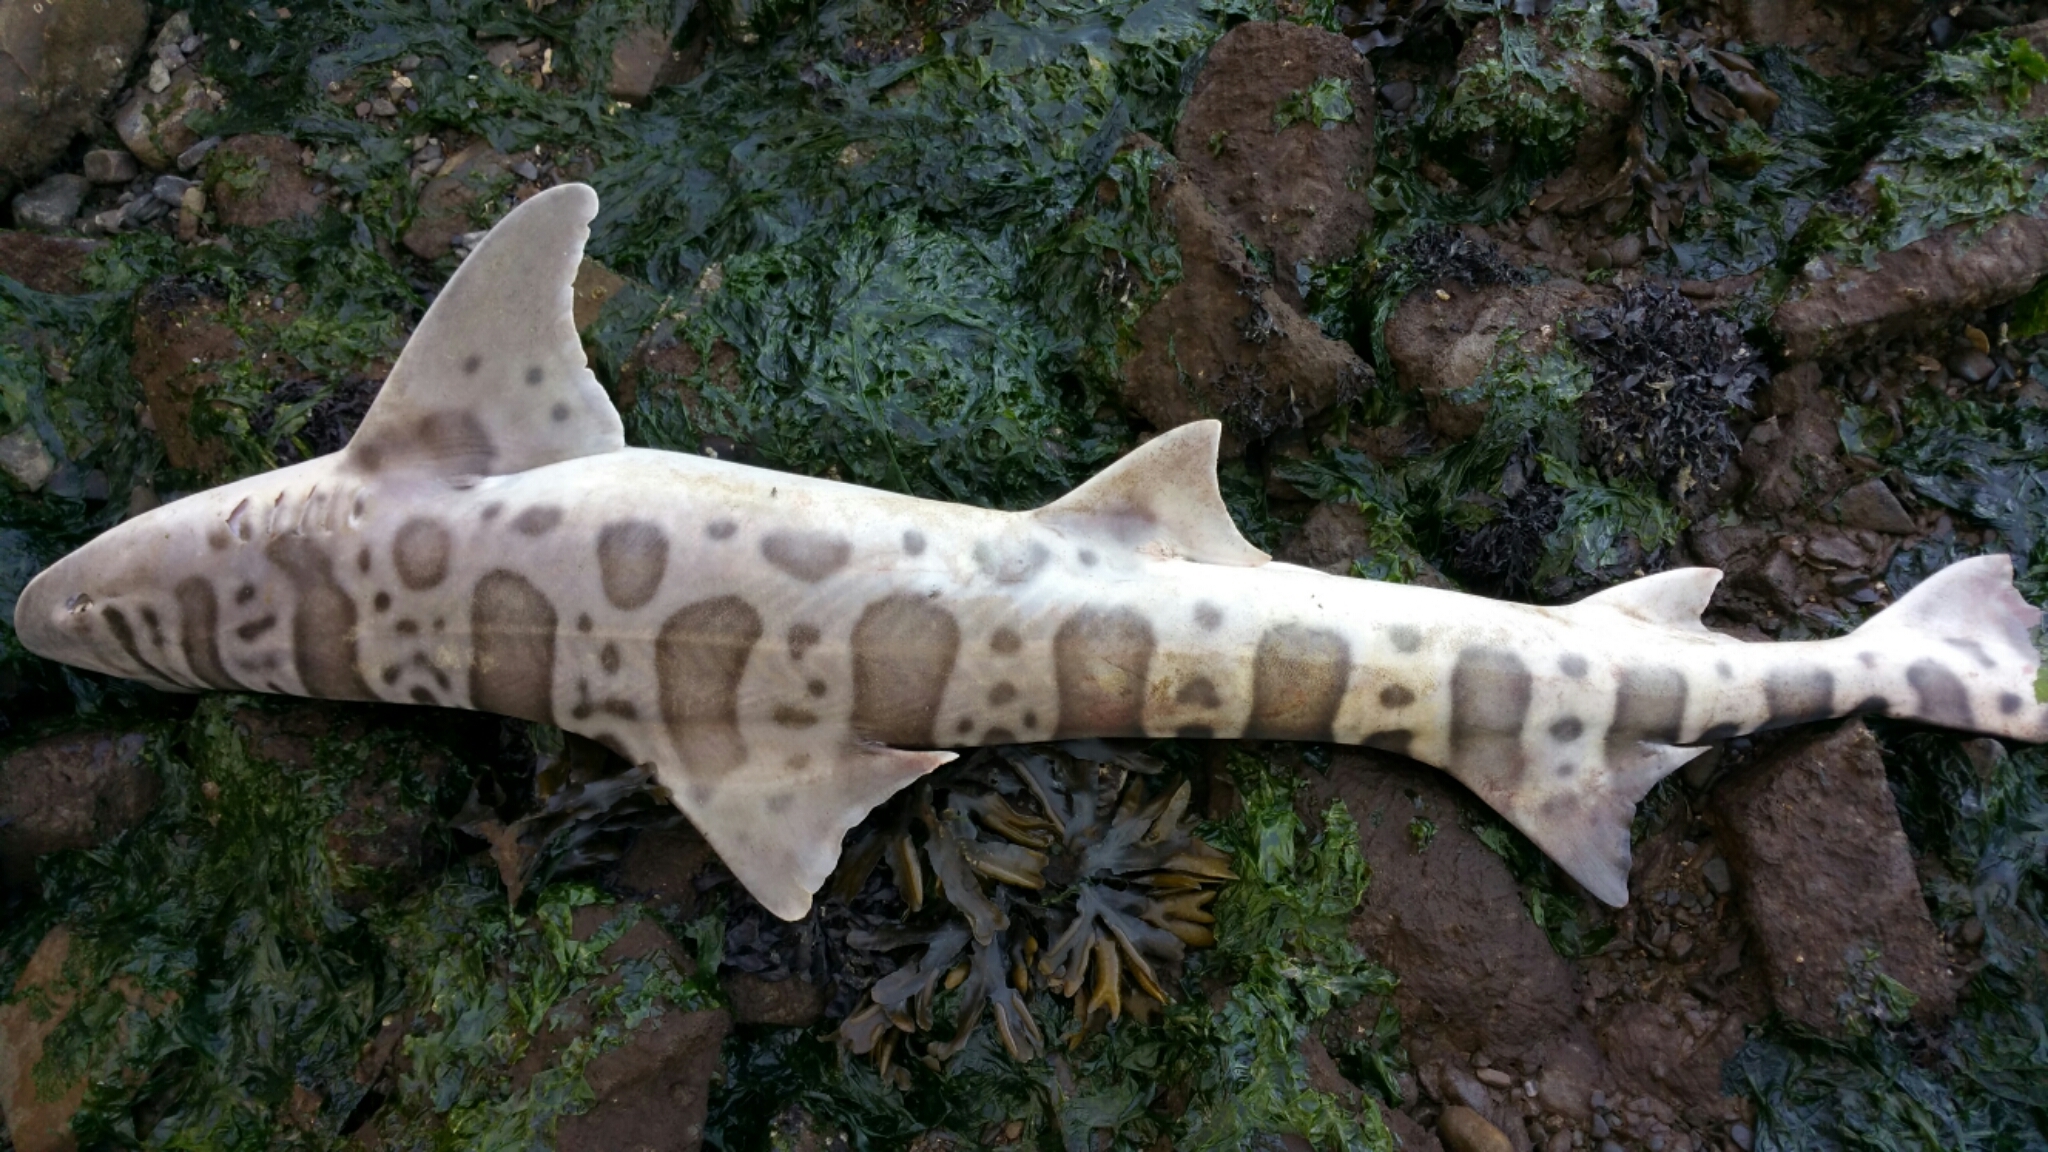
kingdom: Animalia
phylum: Chordata
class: Elasmobranchii
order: Carcharhiniformes
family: Triakidae
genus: Triakis
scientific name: Triakis semifasciata
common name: Leopard shark
